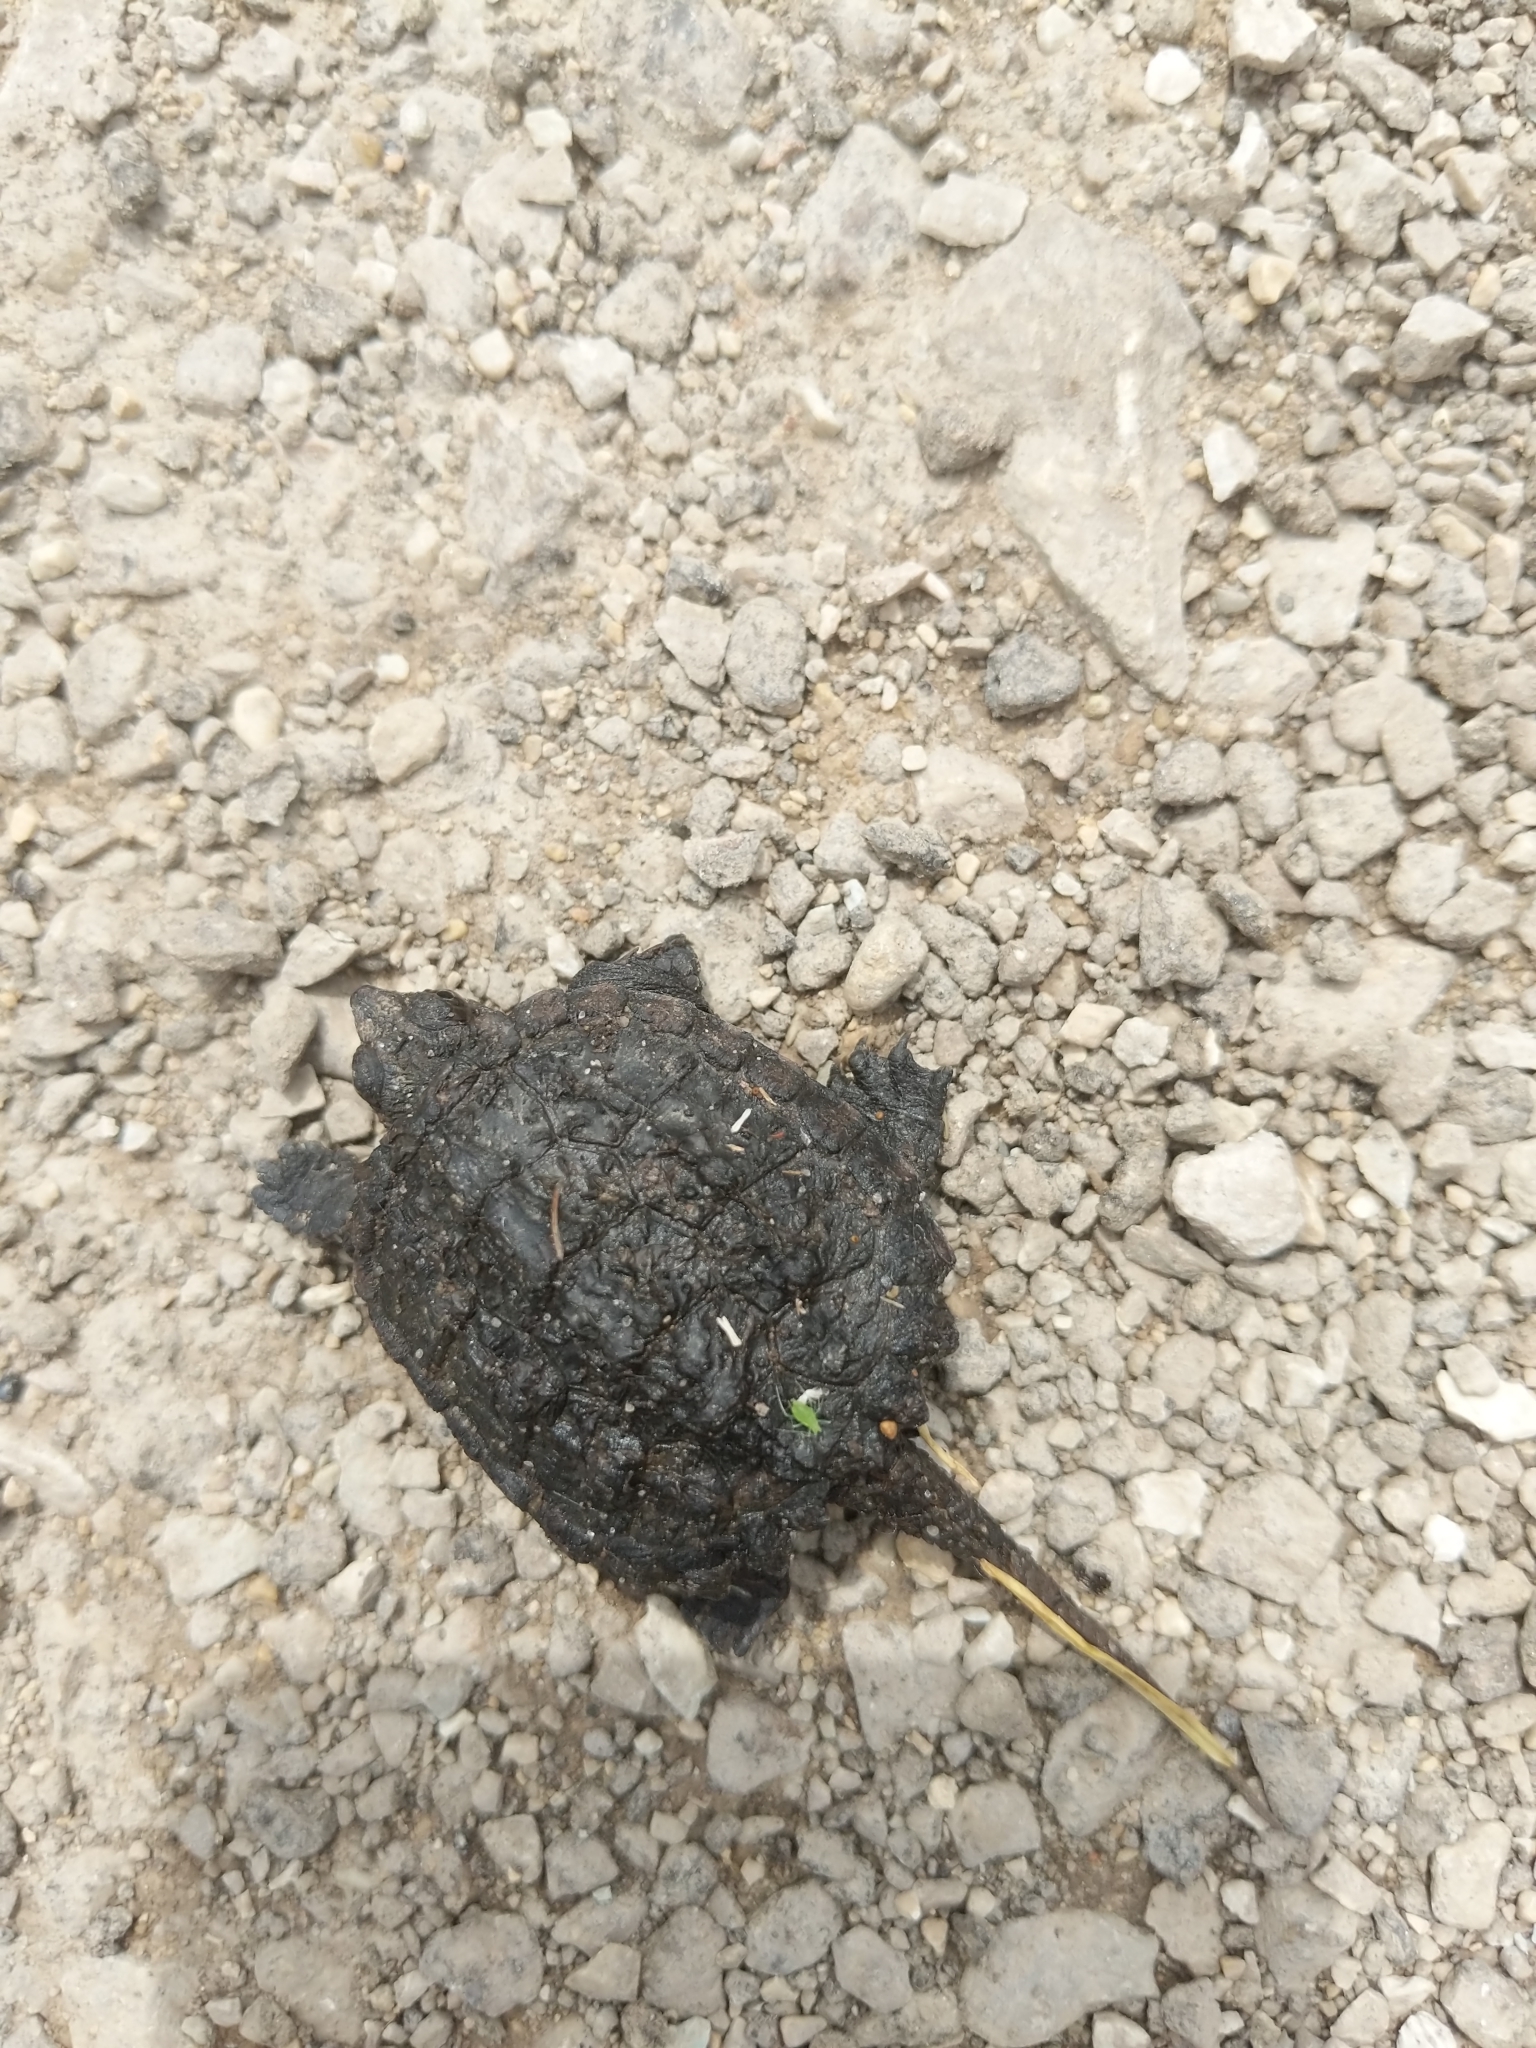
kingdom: Animalia
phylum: Chordata
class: Testudines
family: Chelydridae
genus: Chelydra
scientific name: Chelydra serpentina
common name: Common snapping turtle
